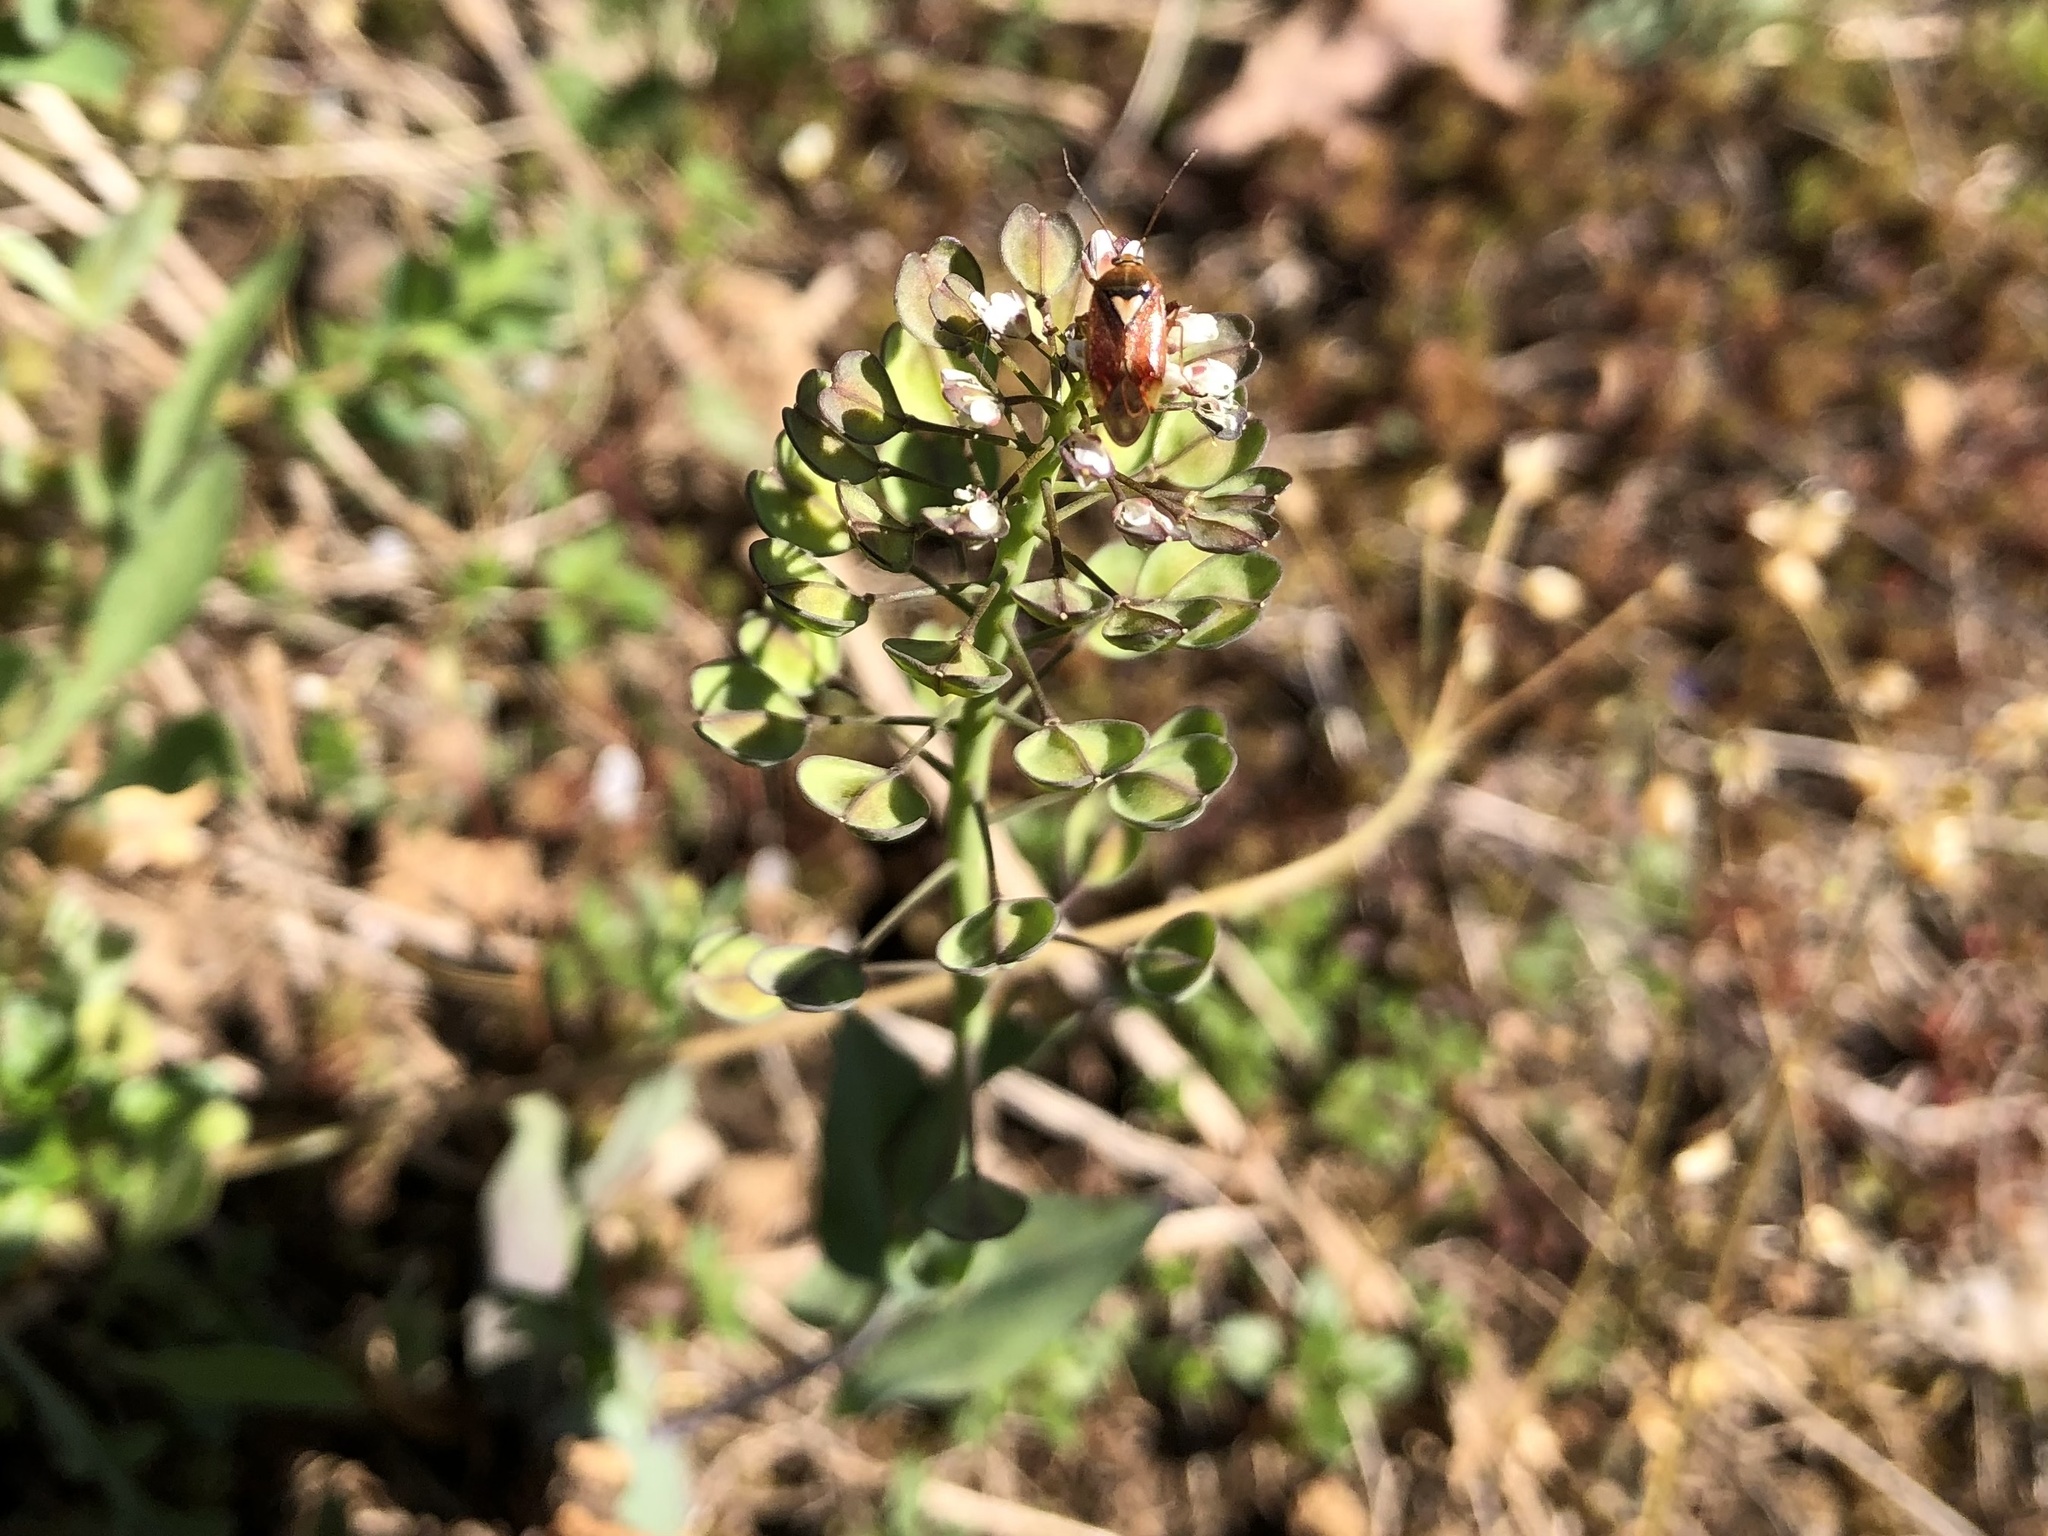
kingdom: Plantae
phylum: Tracheophyta
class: Magnoliopsida
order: Brassicales
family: Brassicaceae
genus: Noccaea
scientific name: Noccaea perfoliata
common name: Perfoliate pennycress
